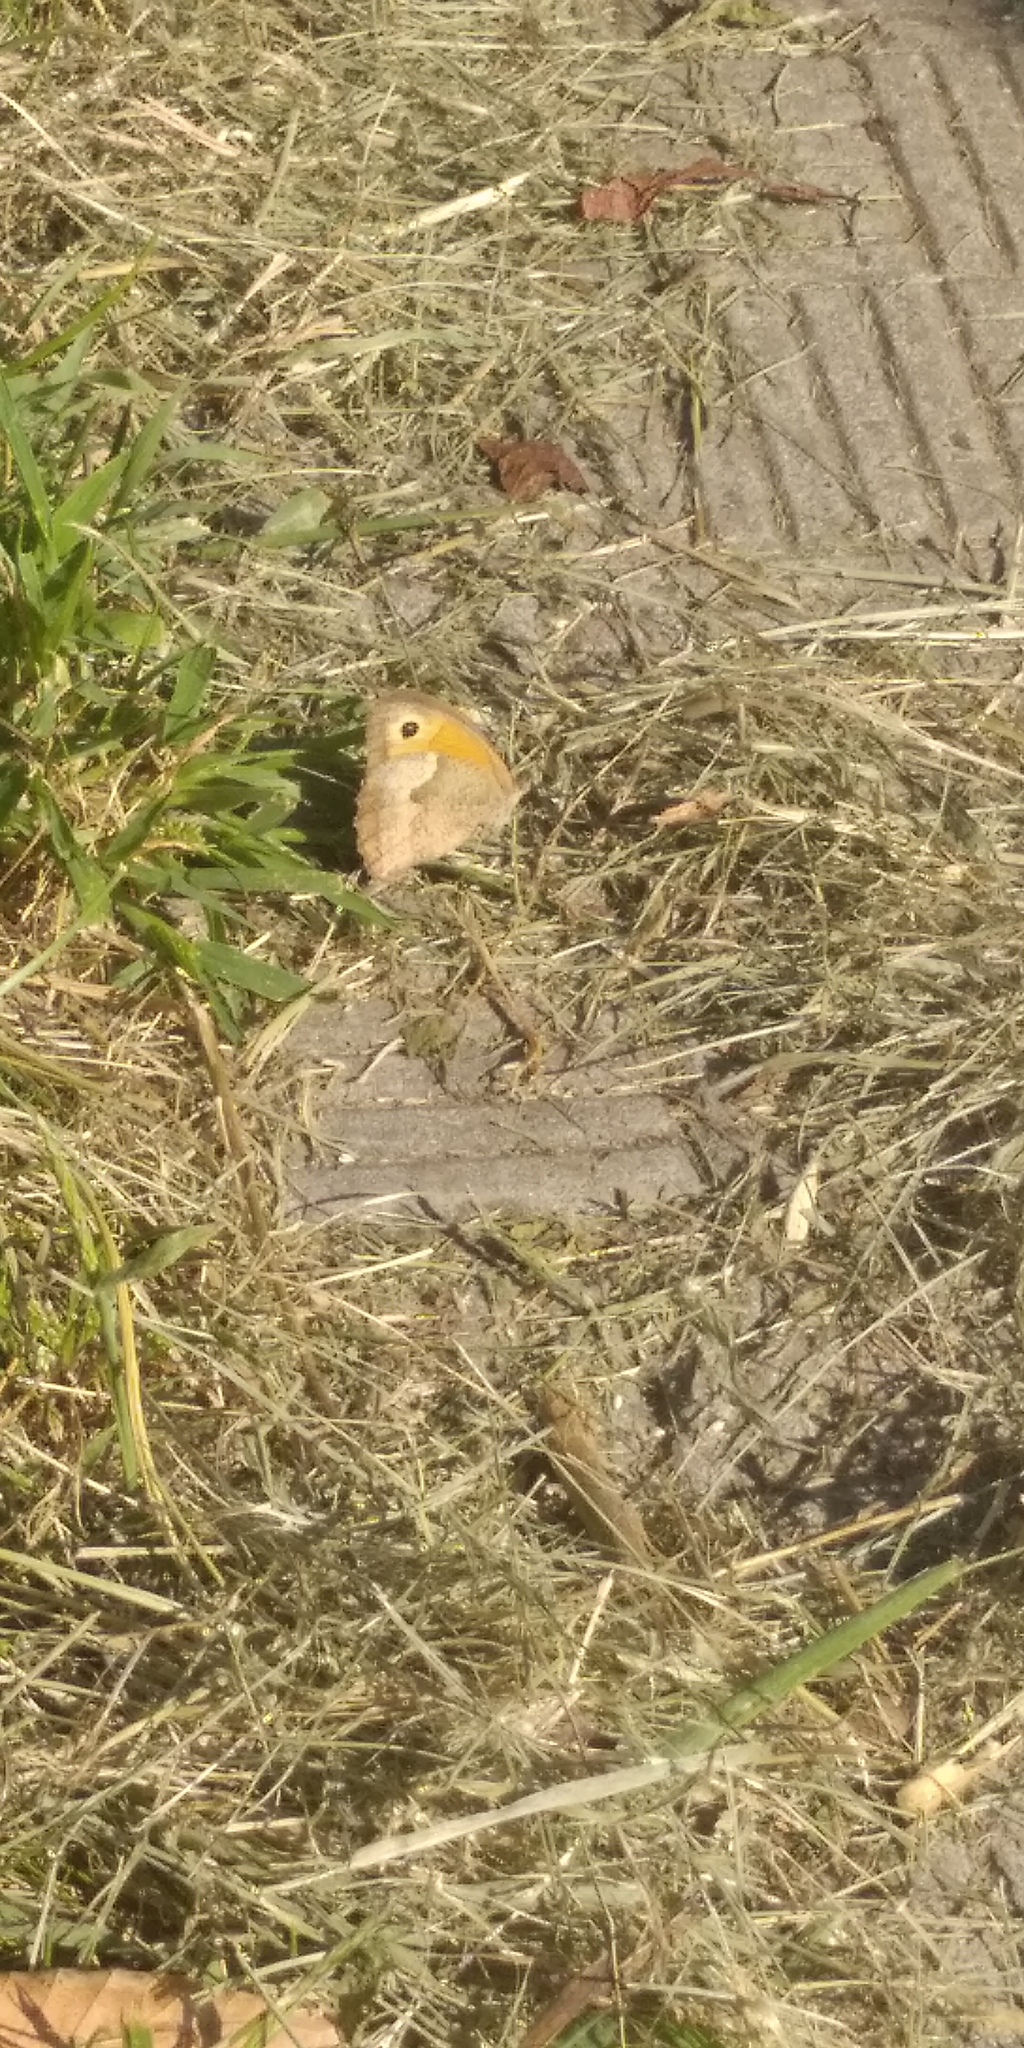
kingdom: Animalia
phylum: Arthropoda
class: Insecta
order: Lepidoptera
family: Nymphalidae
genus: Maniola
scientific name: Maniola jurtina
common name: Meadow brown
